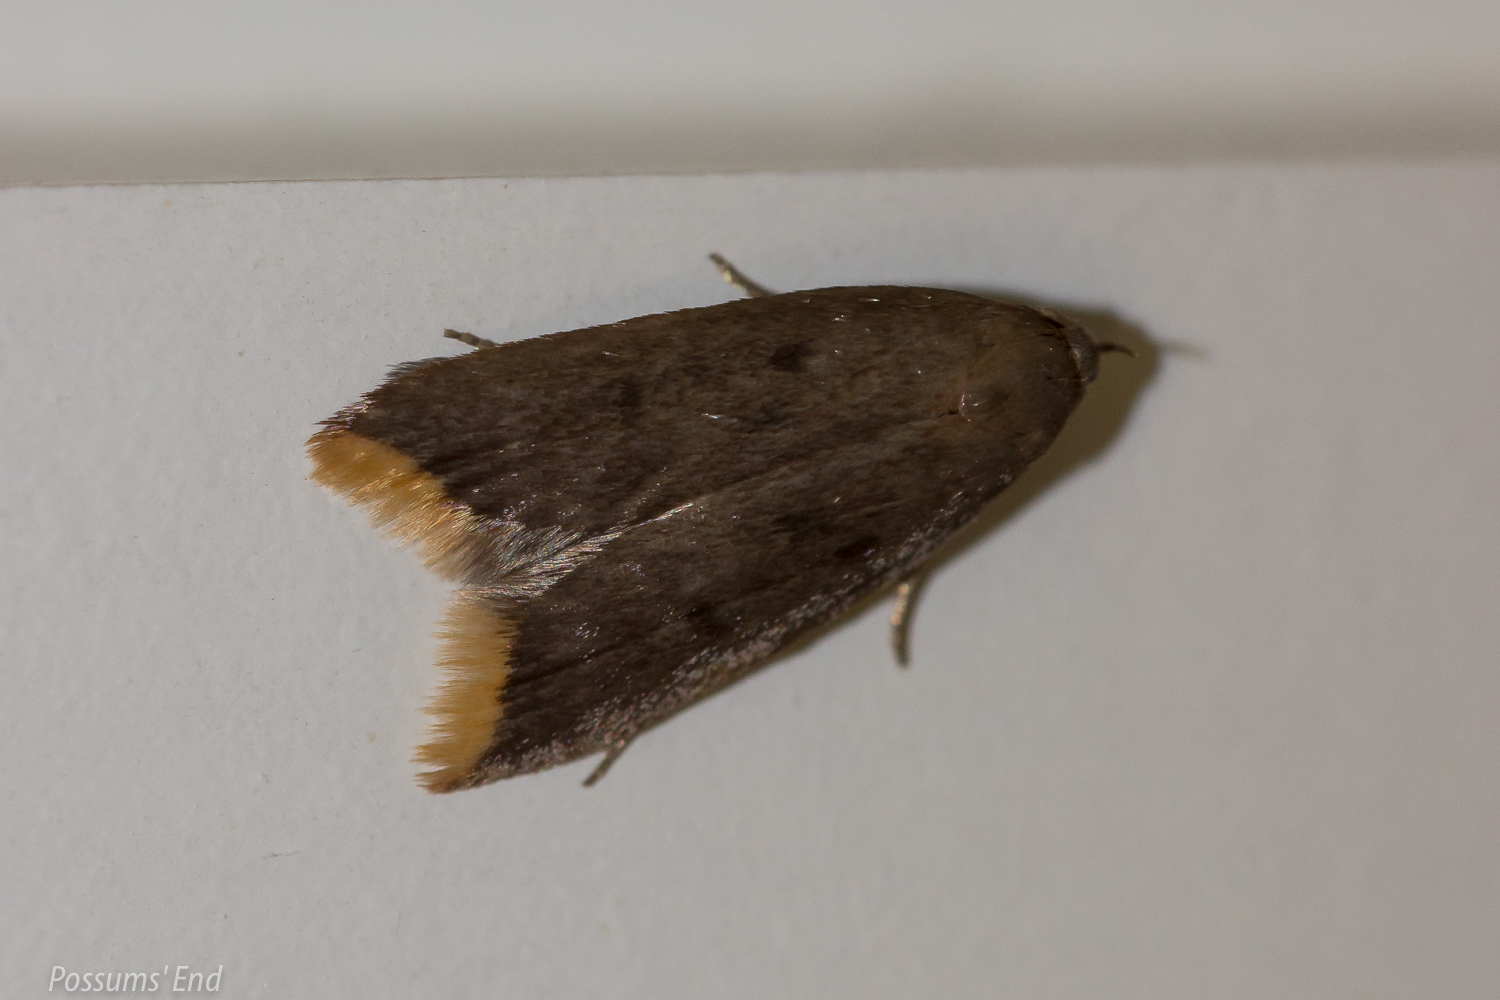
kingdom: Animalia
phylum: Arthropoda
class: Insecta
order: Lepidoptera
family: Oecophoridae
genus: Tachystola
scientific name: Tachystola acroxantha
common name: Ruddy streak
